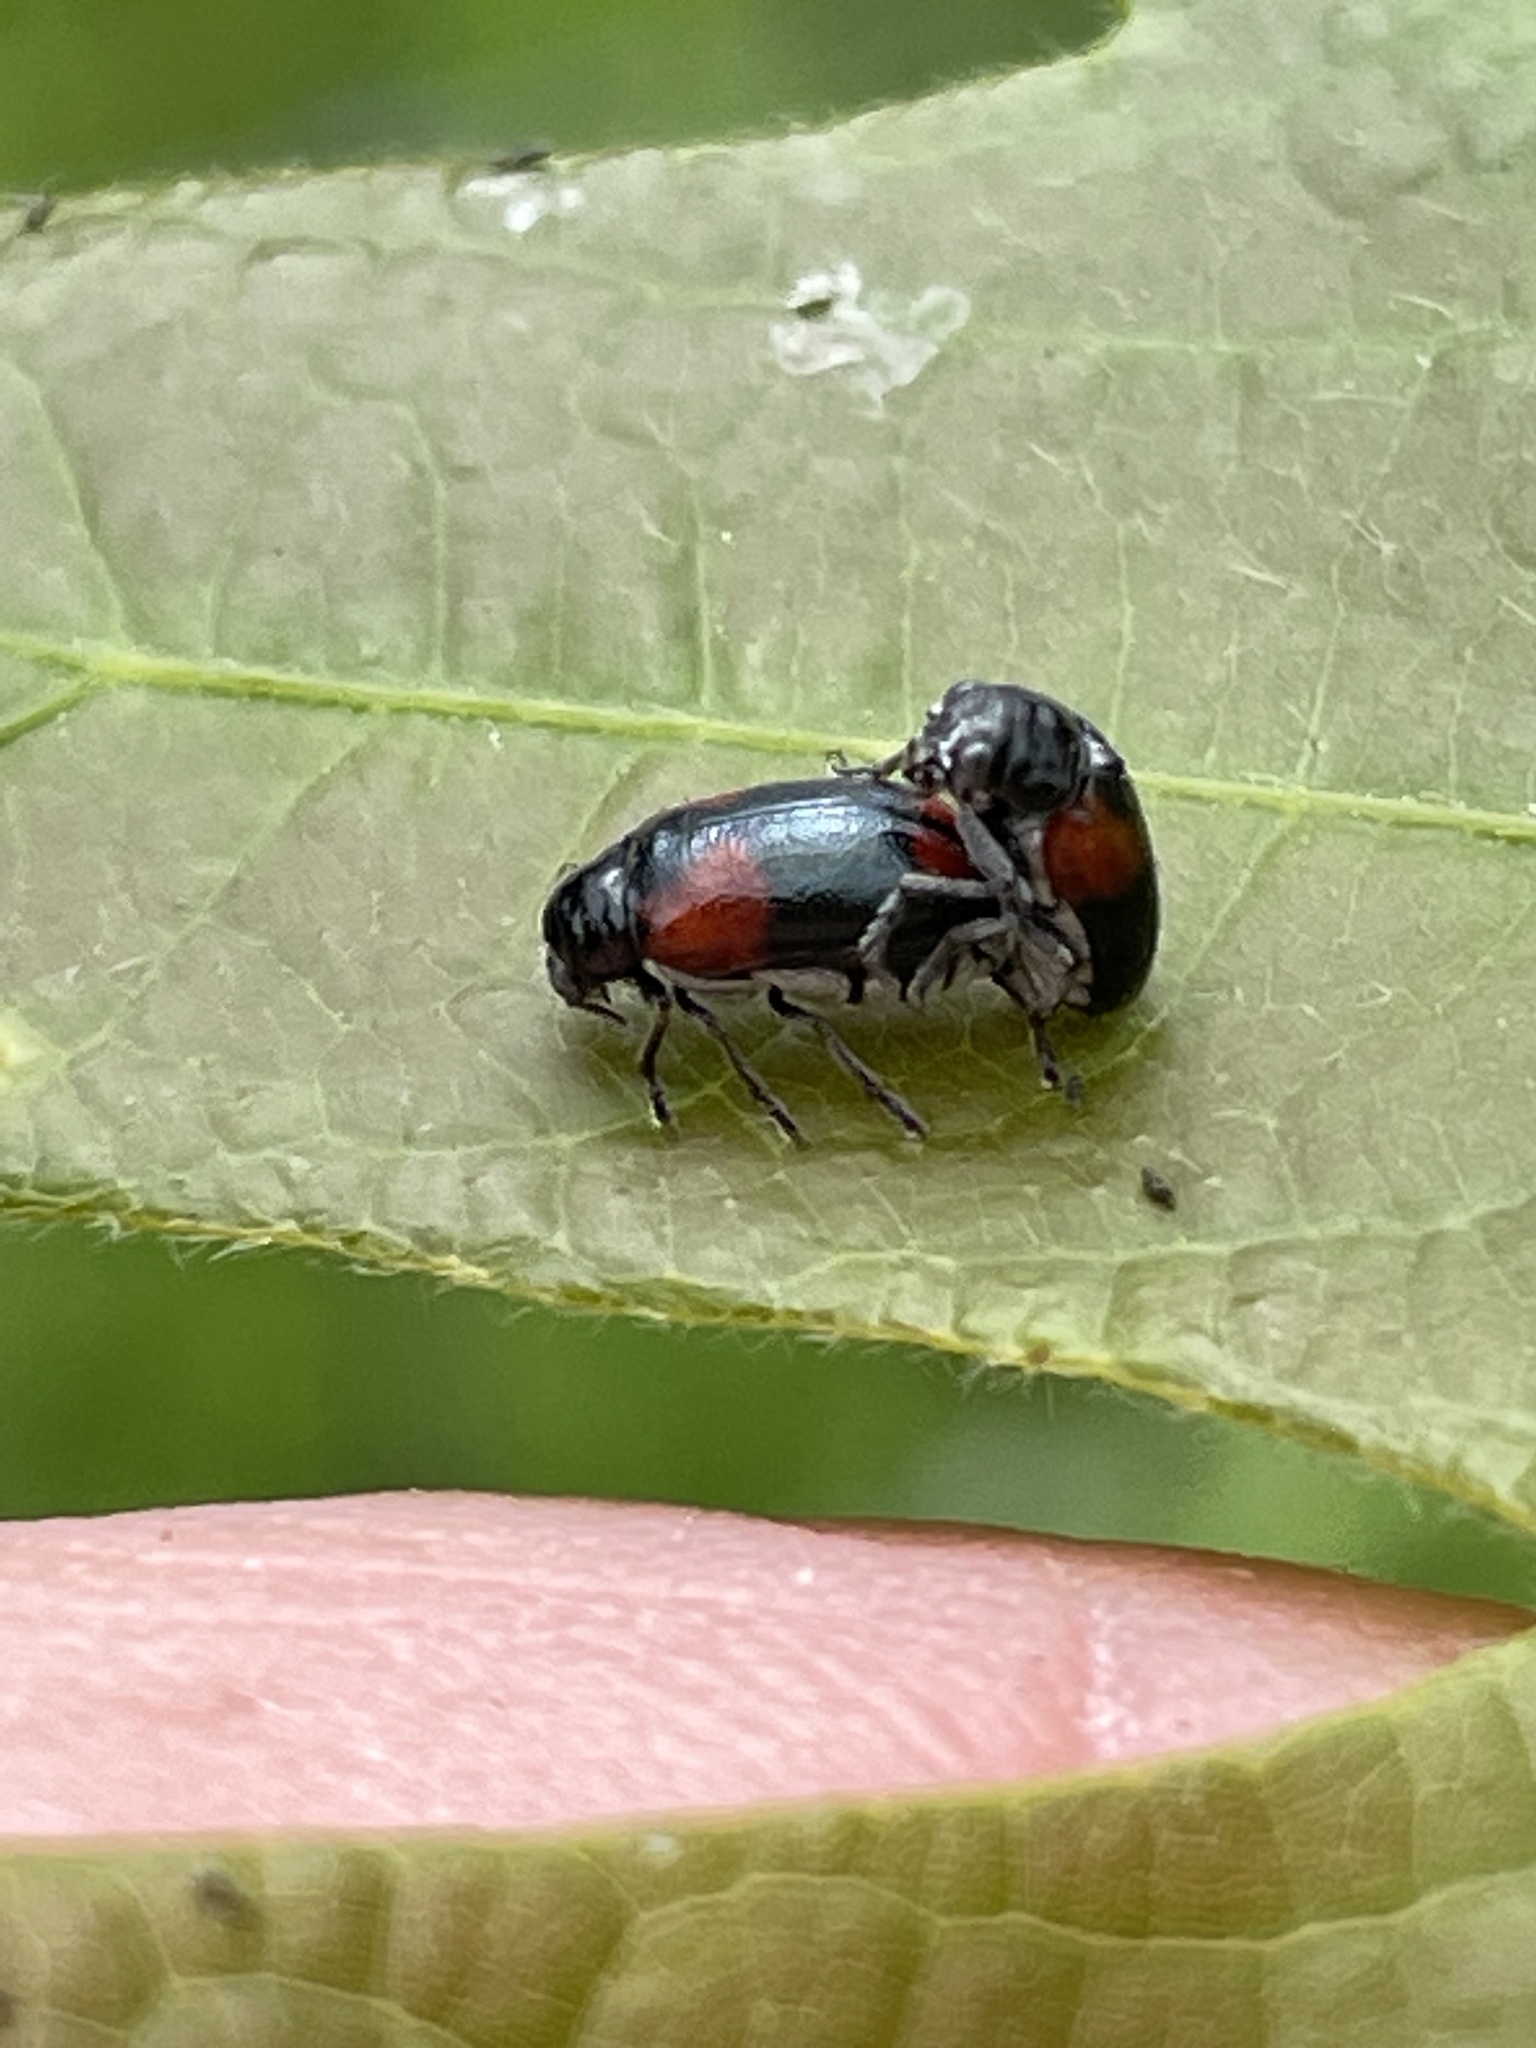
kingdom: Animalia
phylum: Arthropoda
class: Insecta
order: Coleoptera
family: Chrysomelidae
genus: Smaragdina
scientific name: Smaragdina militaris
